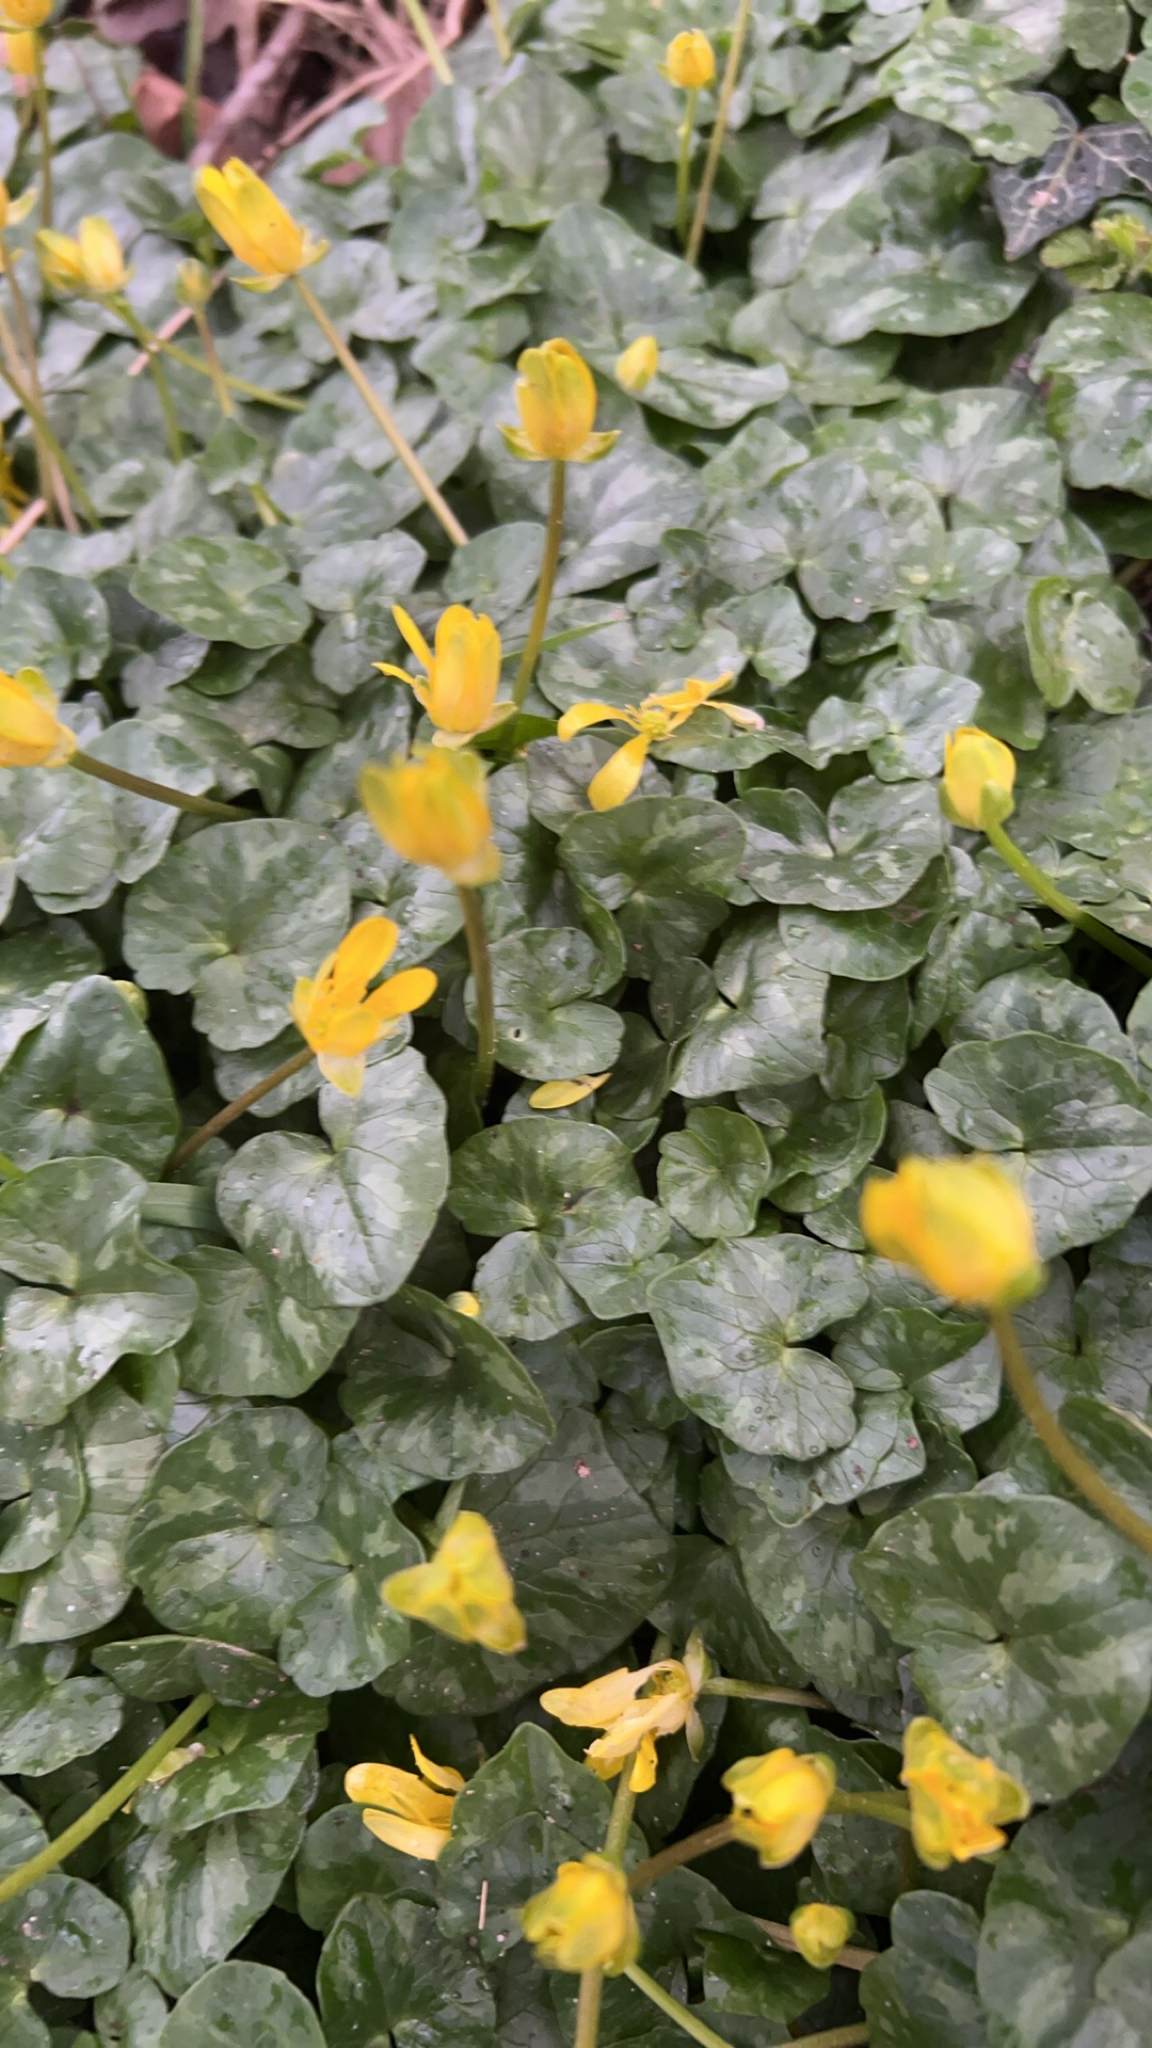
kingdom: Plantae
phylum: Tracheophyta
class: Magnoliopsida
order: Ranunculales
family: Ranunculaceae
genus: Ficaria
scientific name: Ficaria verna
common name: Lesser celandine
